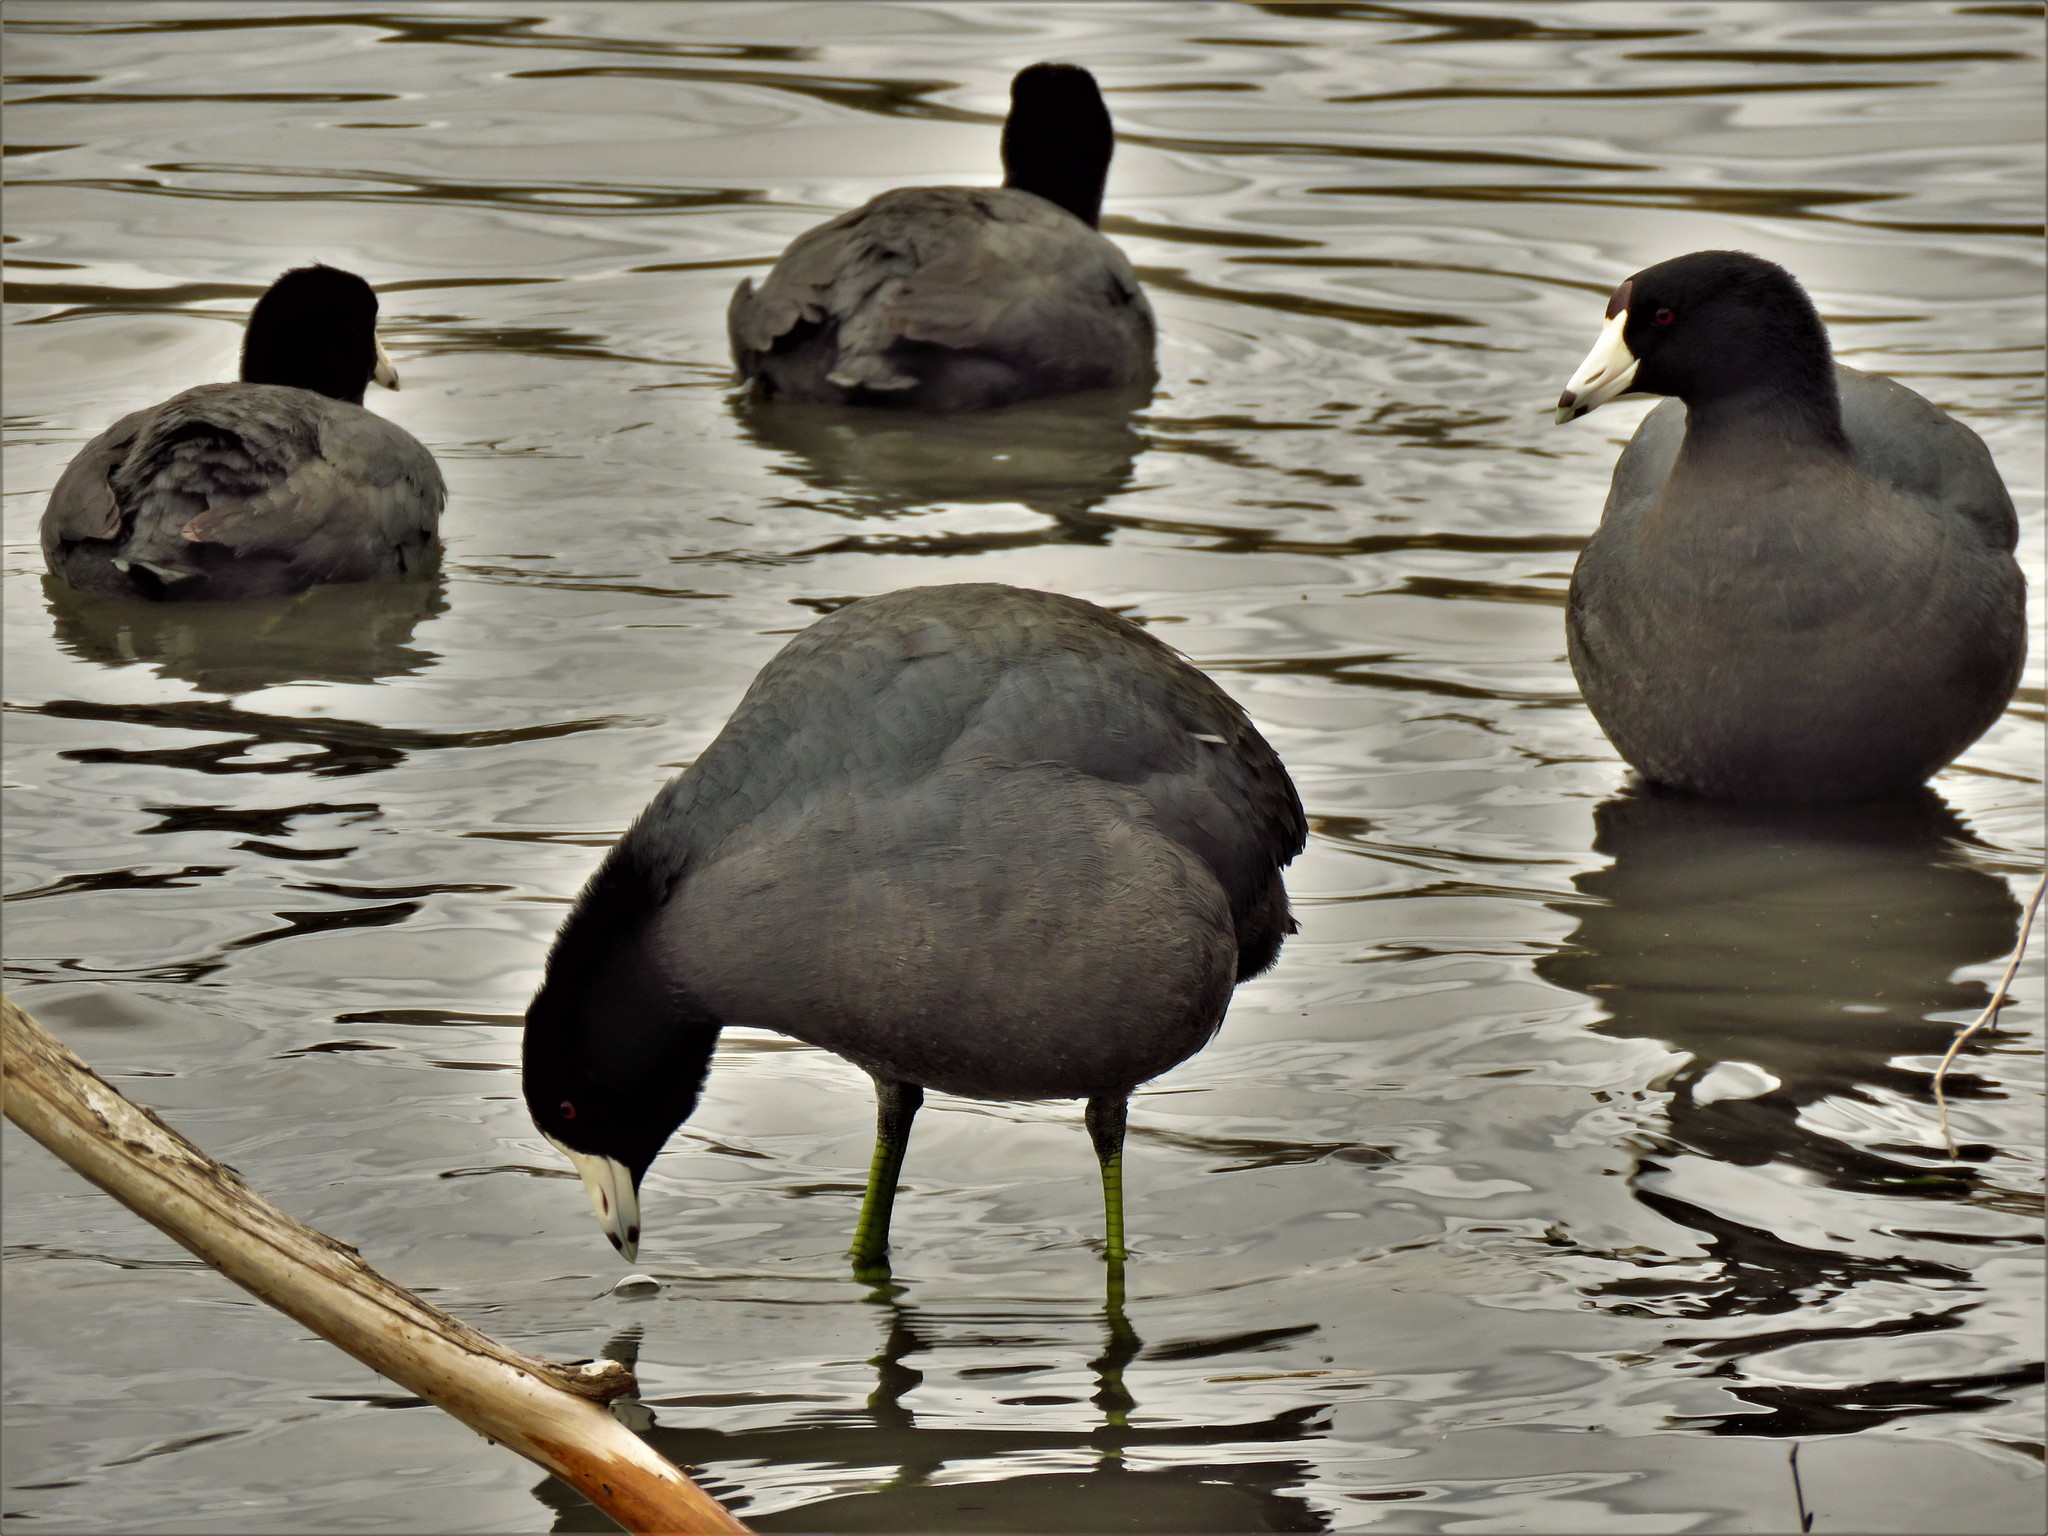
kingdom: Animalia
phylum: Chordata
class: Aves
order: Gruiformes
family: Rallidae
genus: Fulica
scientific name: Fulica americana
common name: American coot
